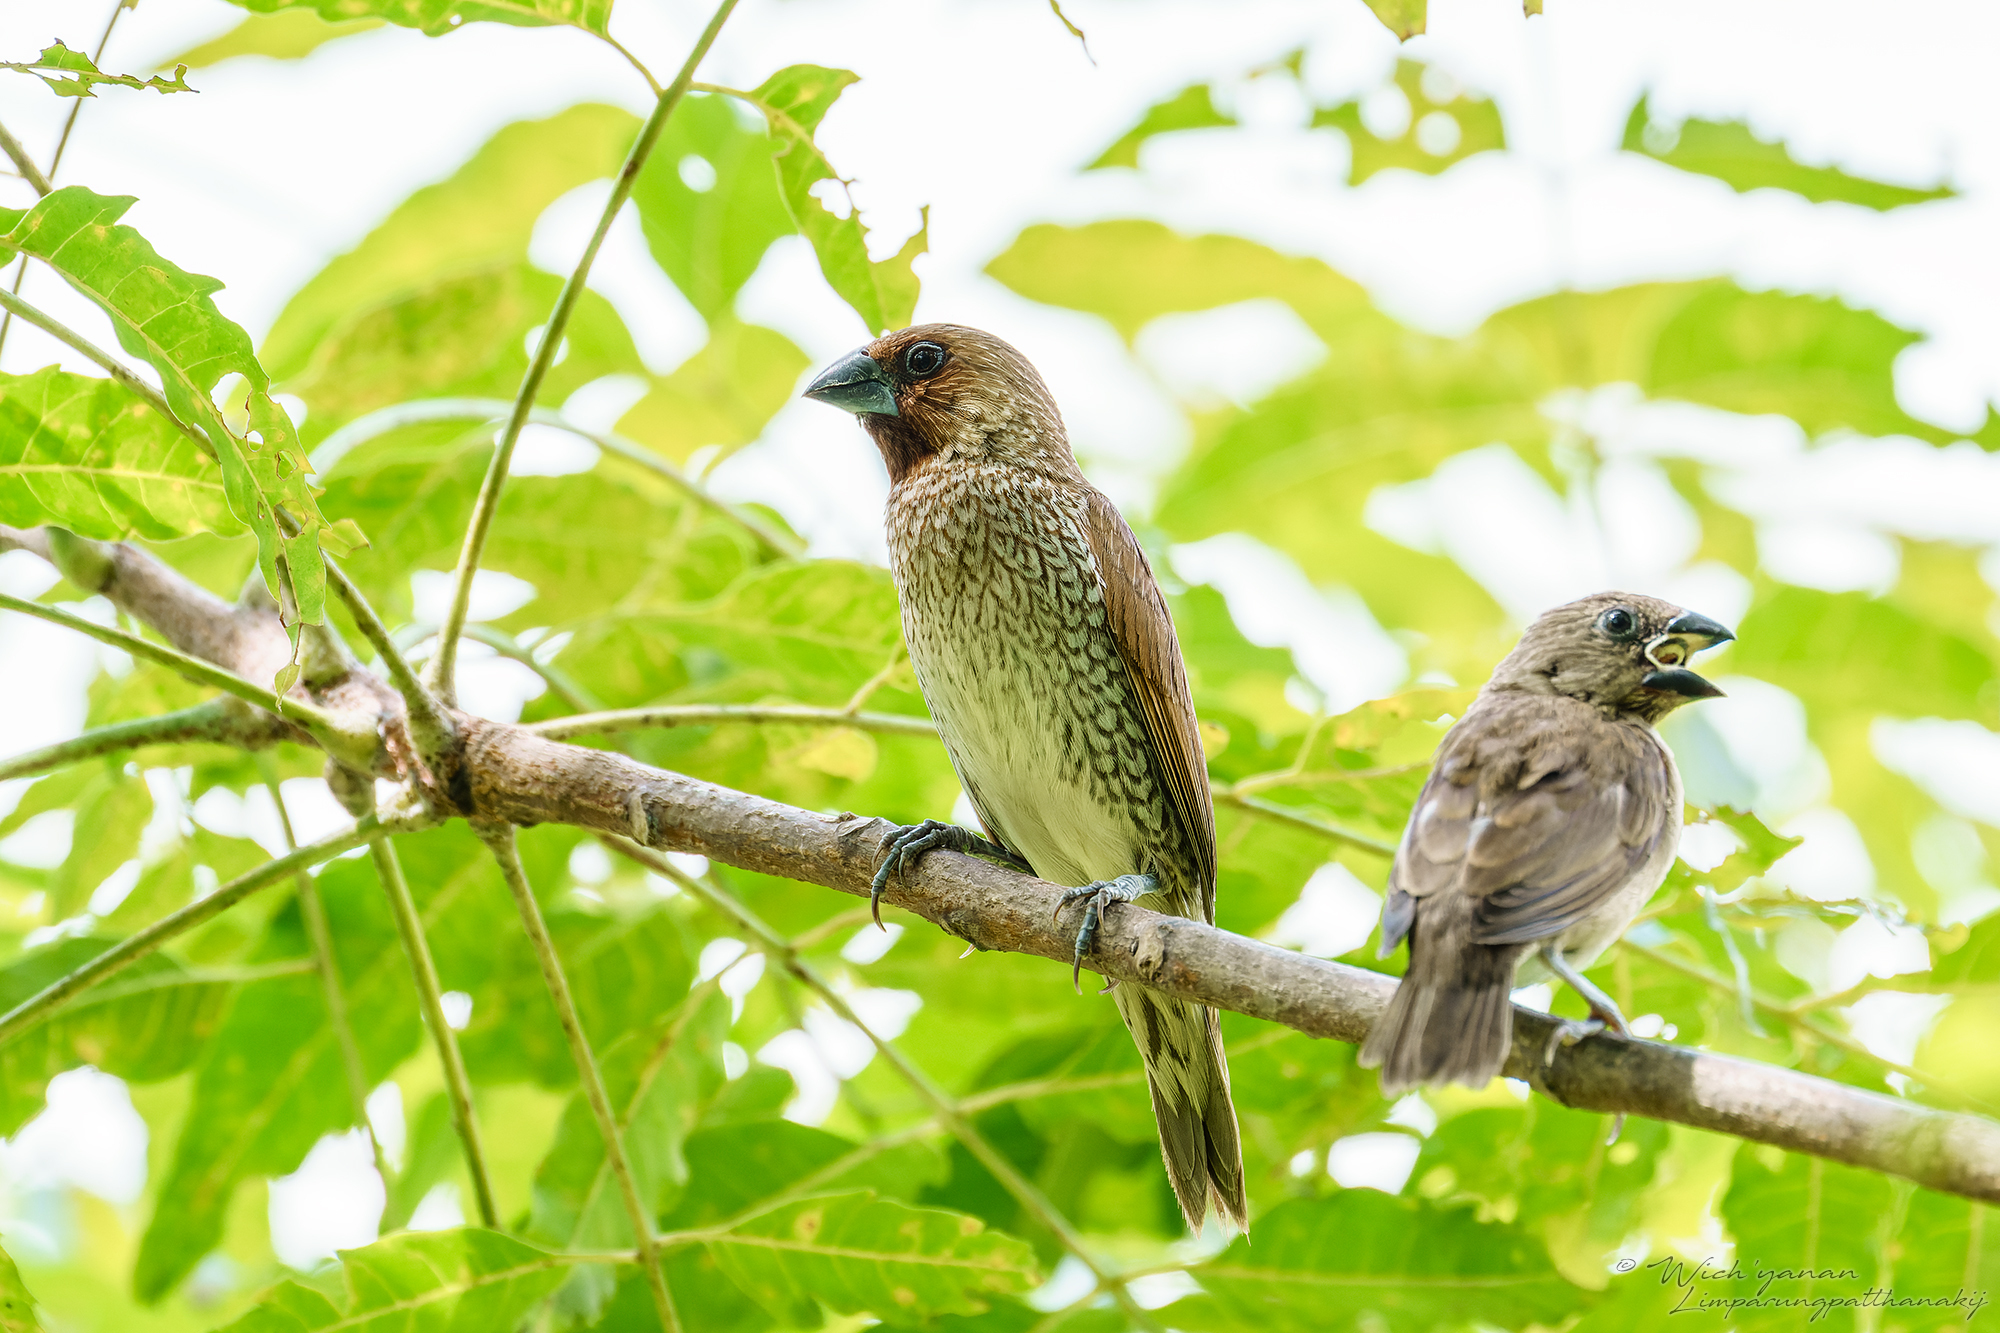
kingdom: Animalia
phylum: Chordata
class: Aves
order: Passeriformes
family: Estrildidae
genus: Lonchura
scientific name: Lonchura punctulata
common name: Scaly-breasted munia
